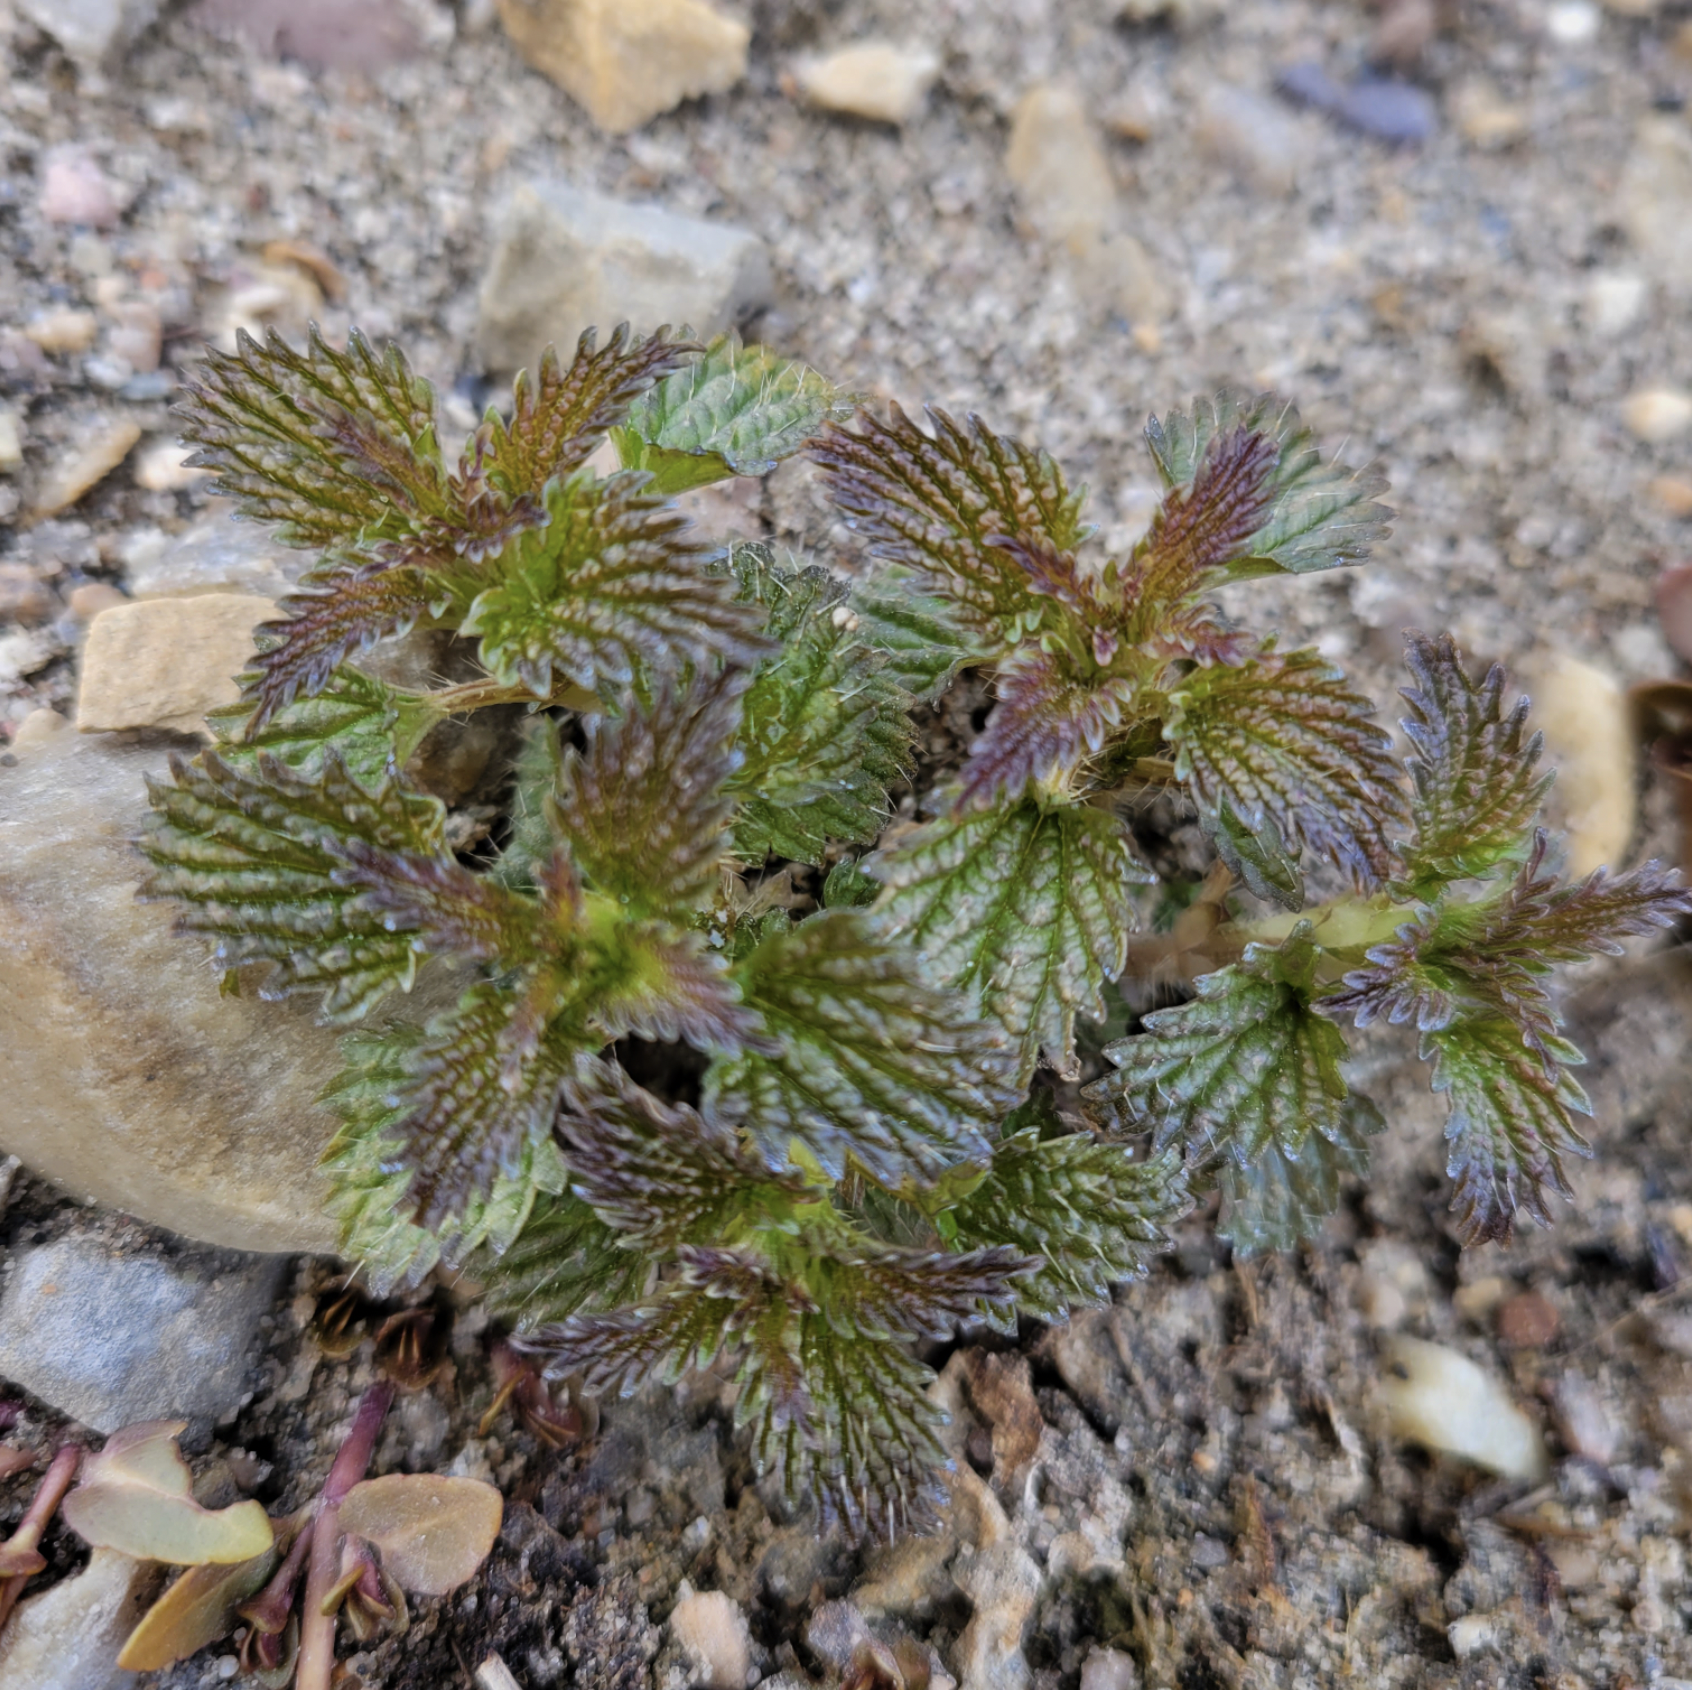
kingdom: Plantae
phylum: Tracheophyta
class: Magnoliopsida
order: Rosales
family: Urticaceae
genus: Urtica
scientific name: Urtica gracilis
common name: Slender stinging nettle
